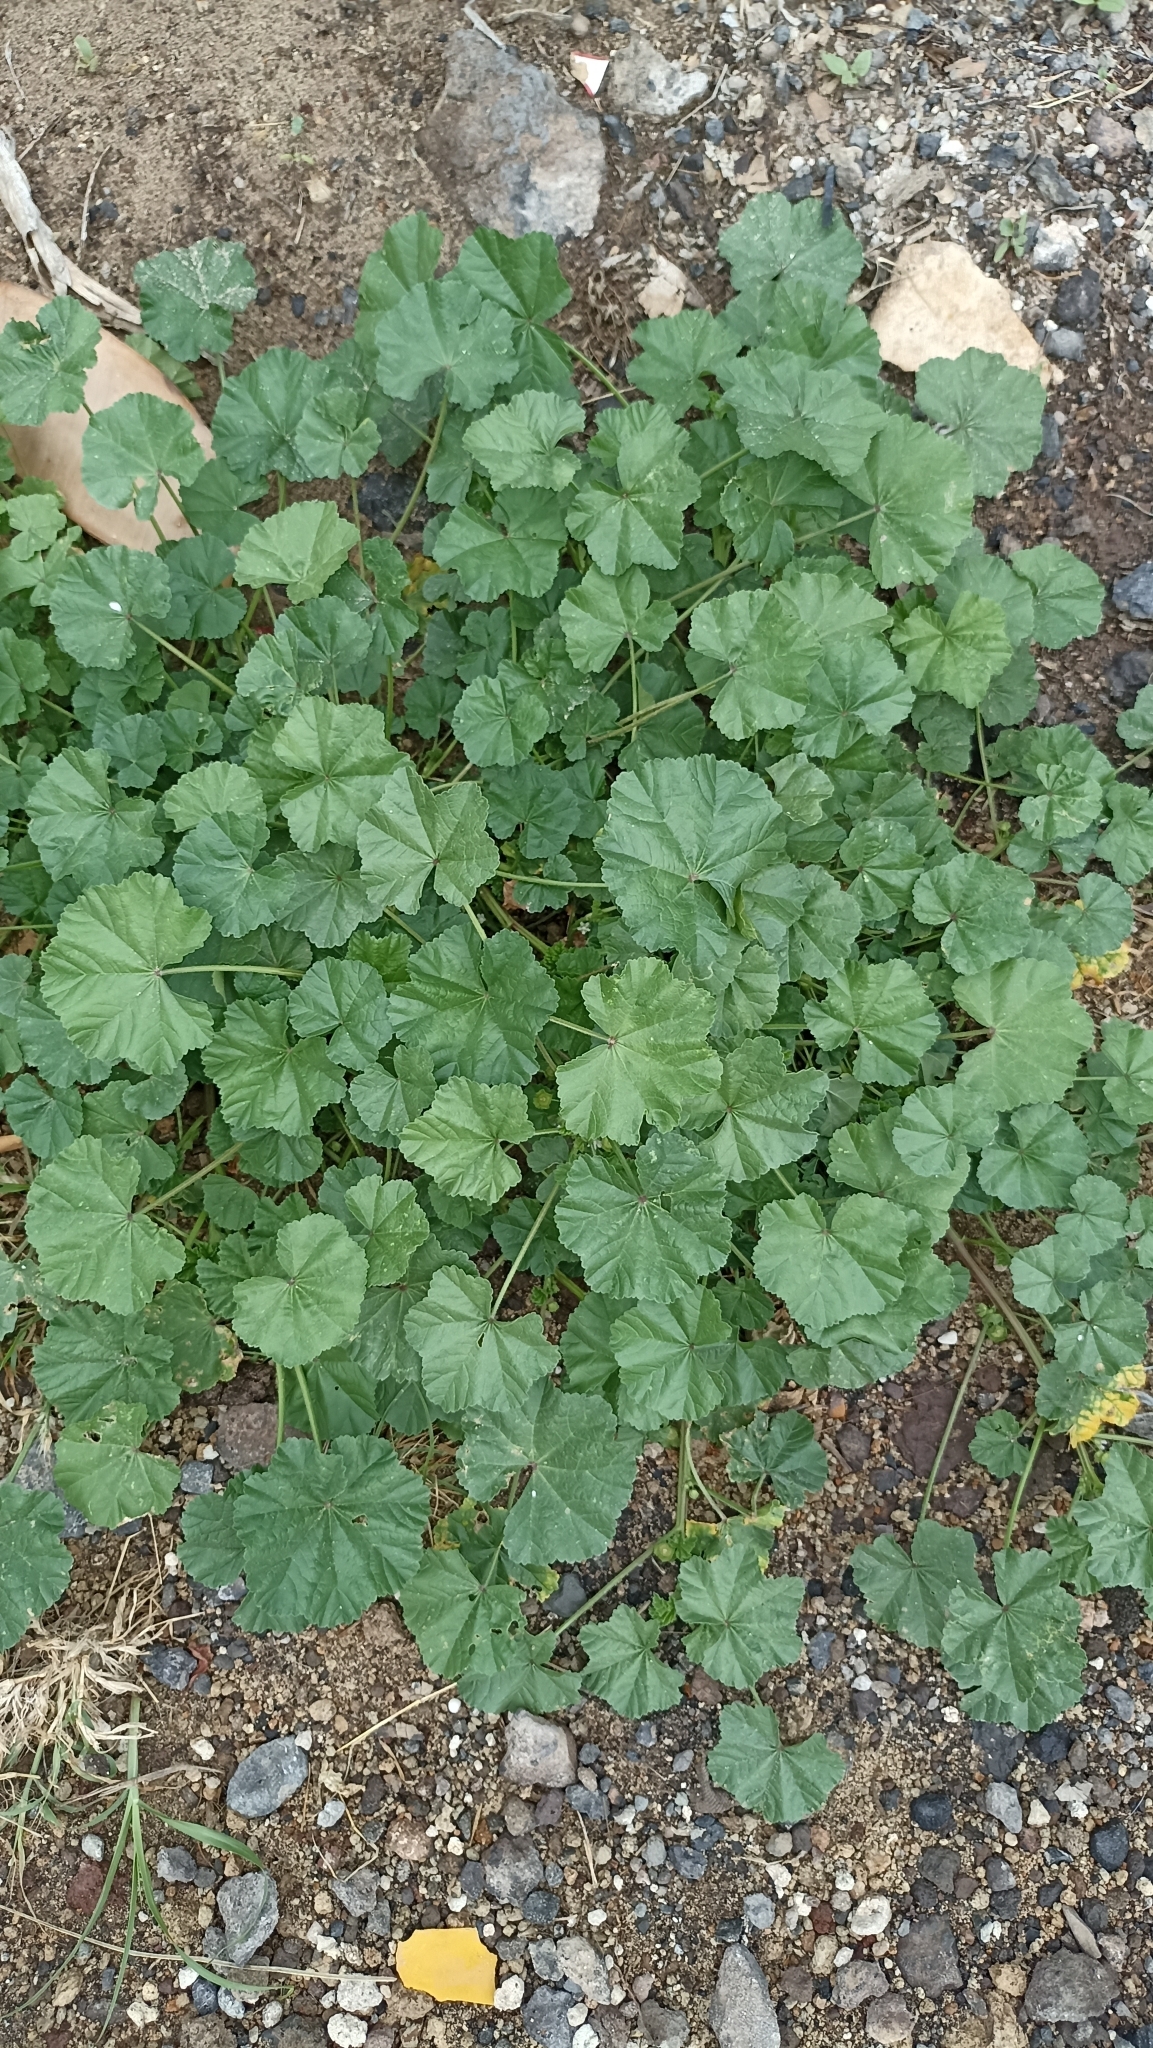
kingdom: Plantae
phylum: Tracheophyta
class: Magnoliopsida
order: Malvales
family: Malvaceae
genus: Malva
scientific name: Malva parviflora
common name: Least mallow
